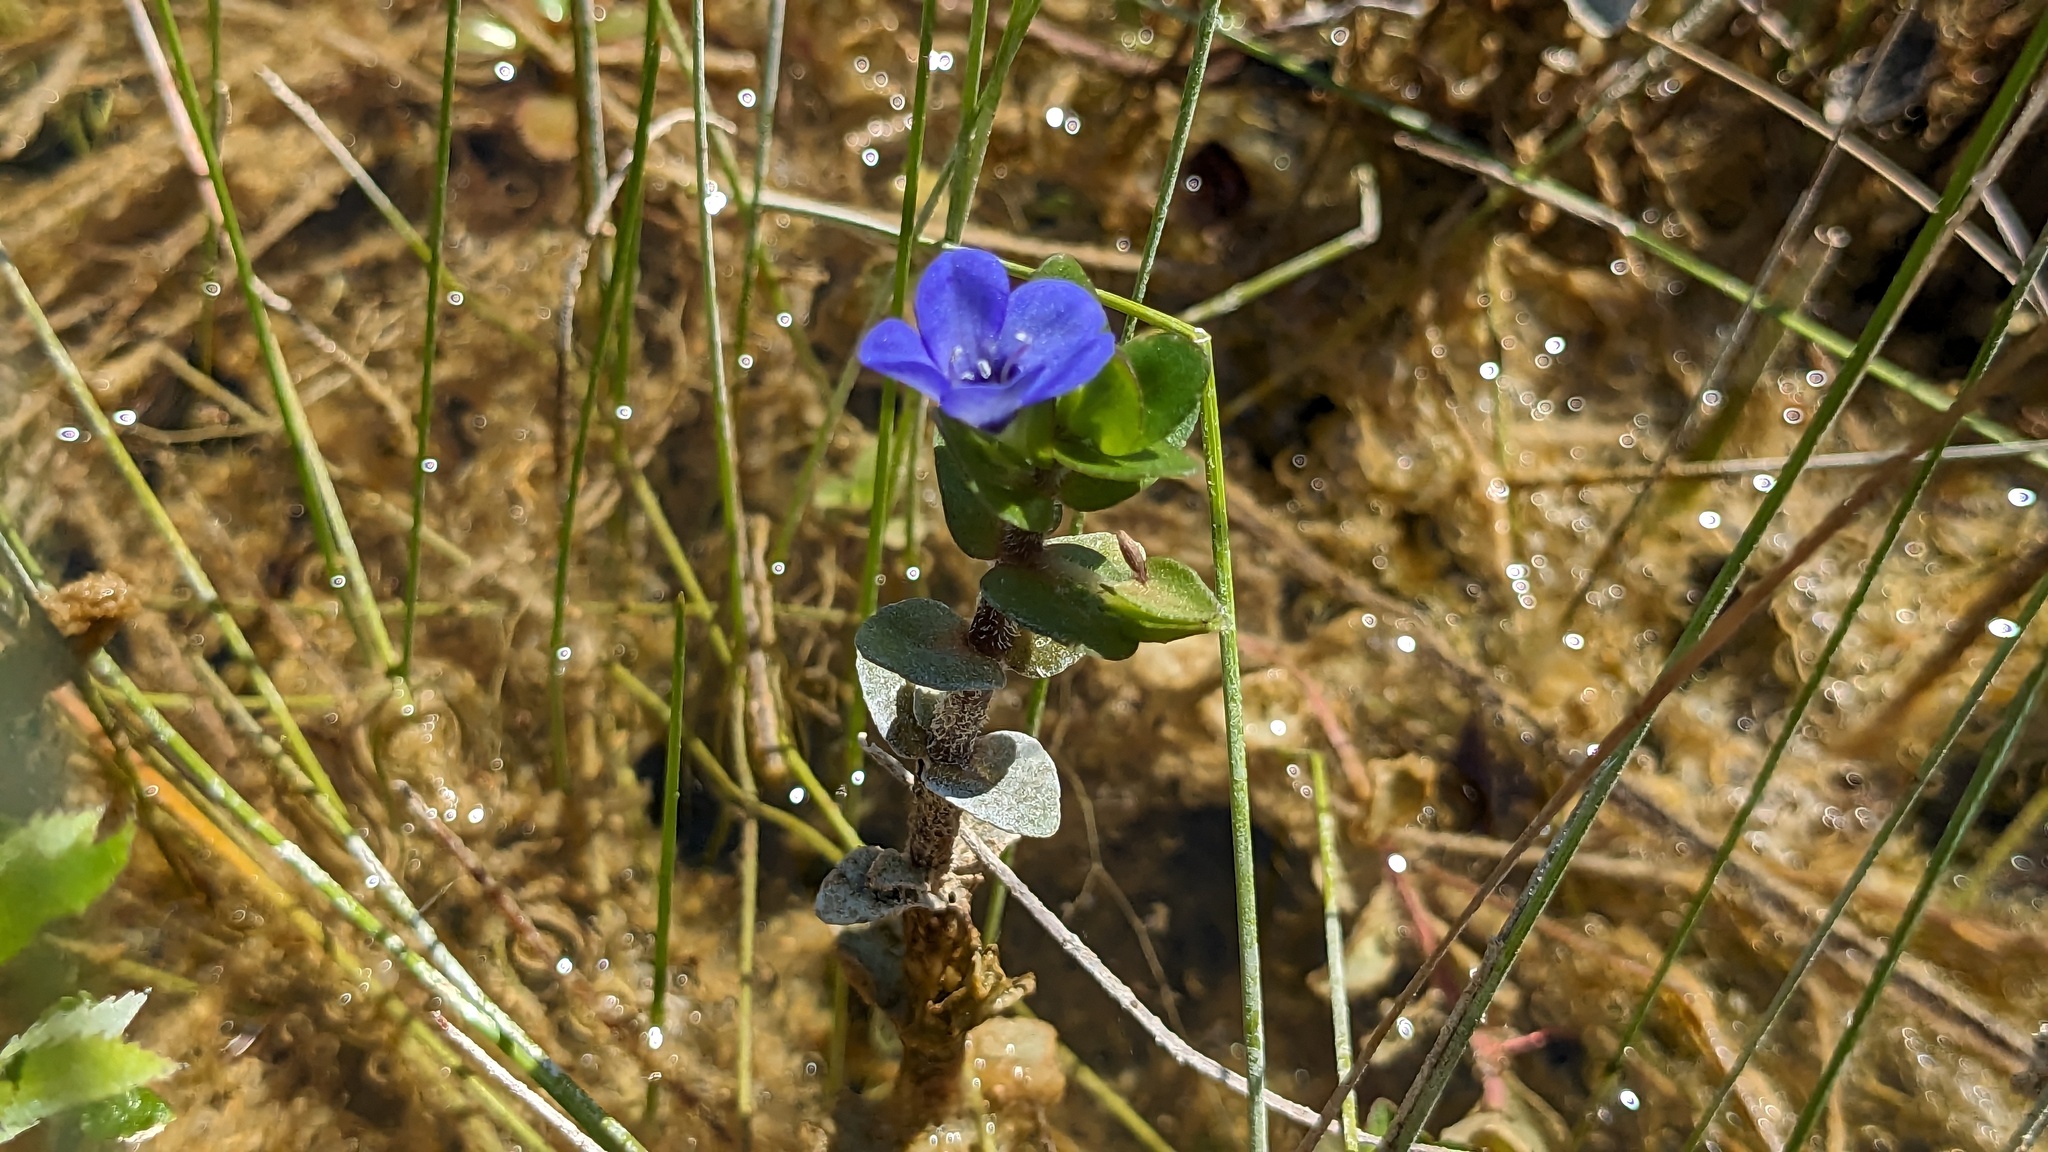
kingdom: Plantae
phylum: Tracheophyta
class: Magnoliopsida
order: Lamiales
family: Plantaginaceae
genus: Bacopa
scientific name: Bacopa caroliniana
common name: Lemon bacopa
